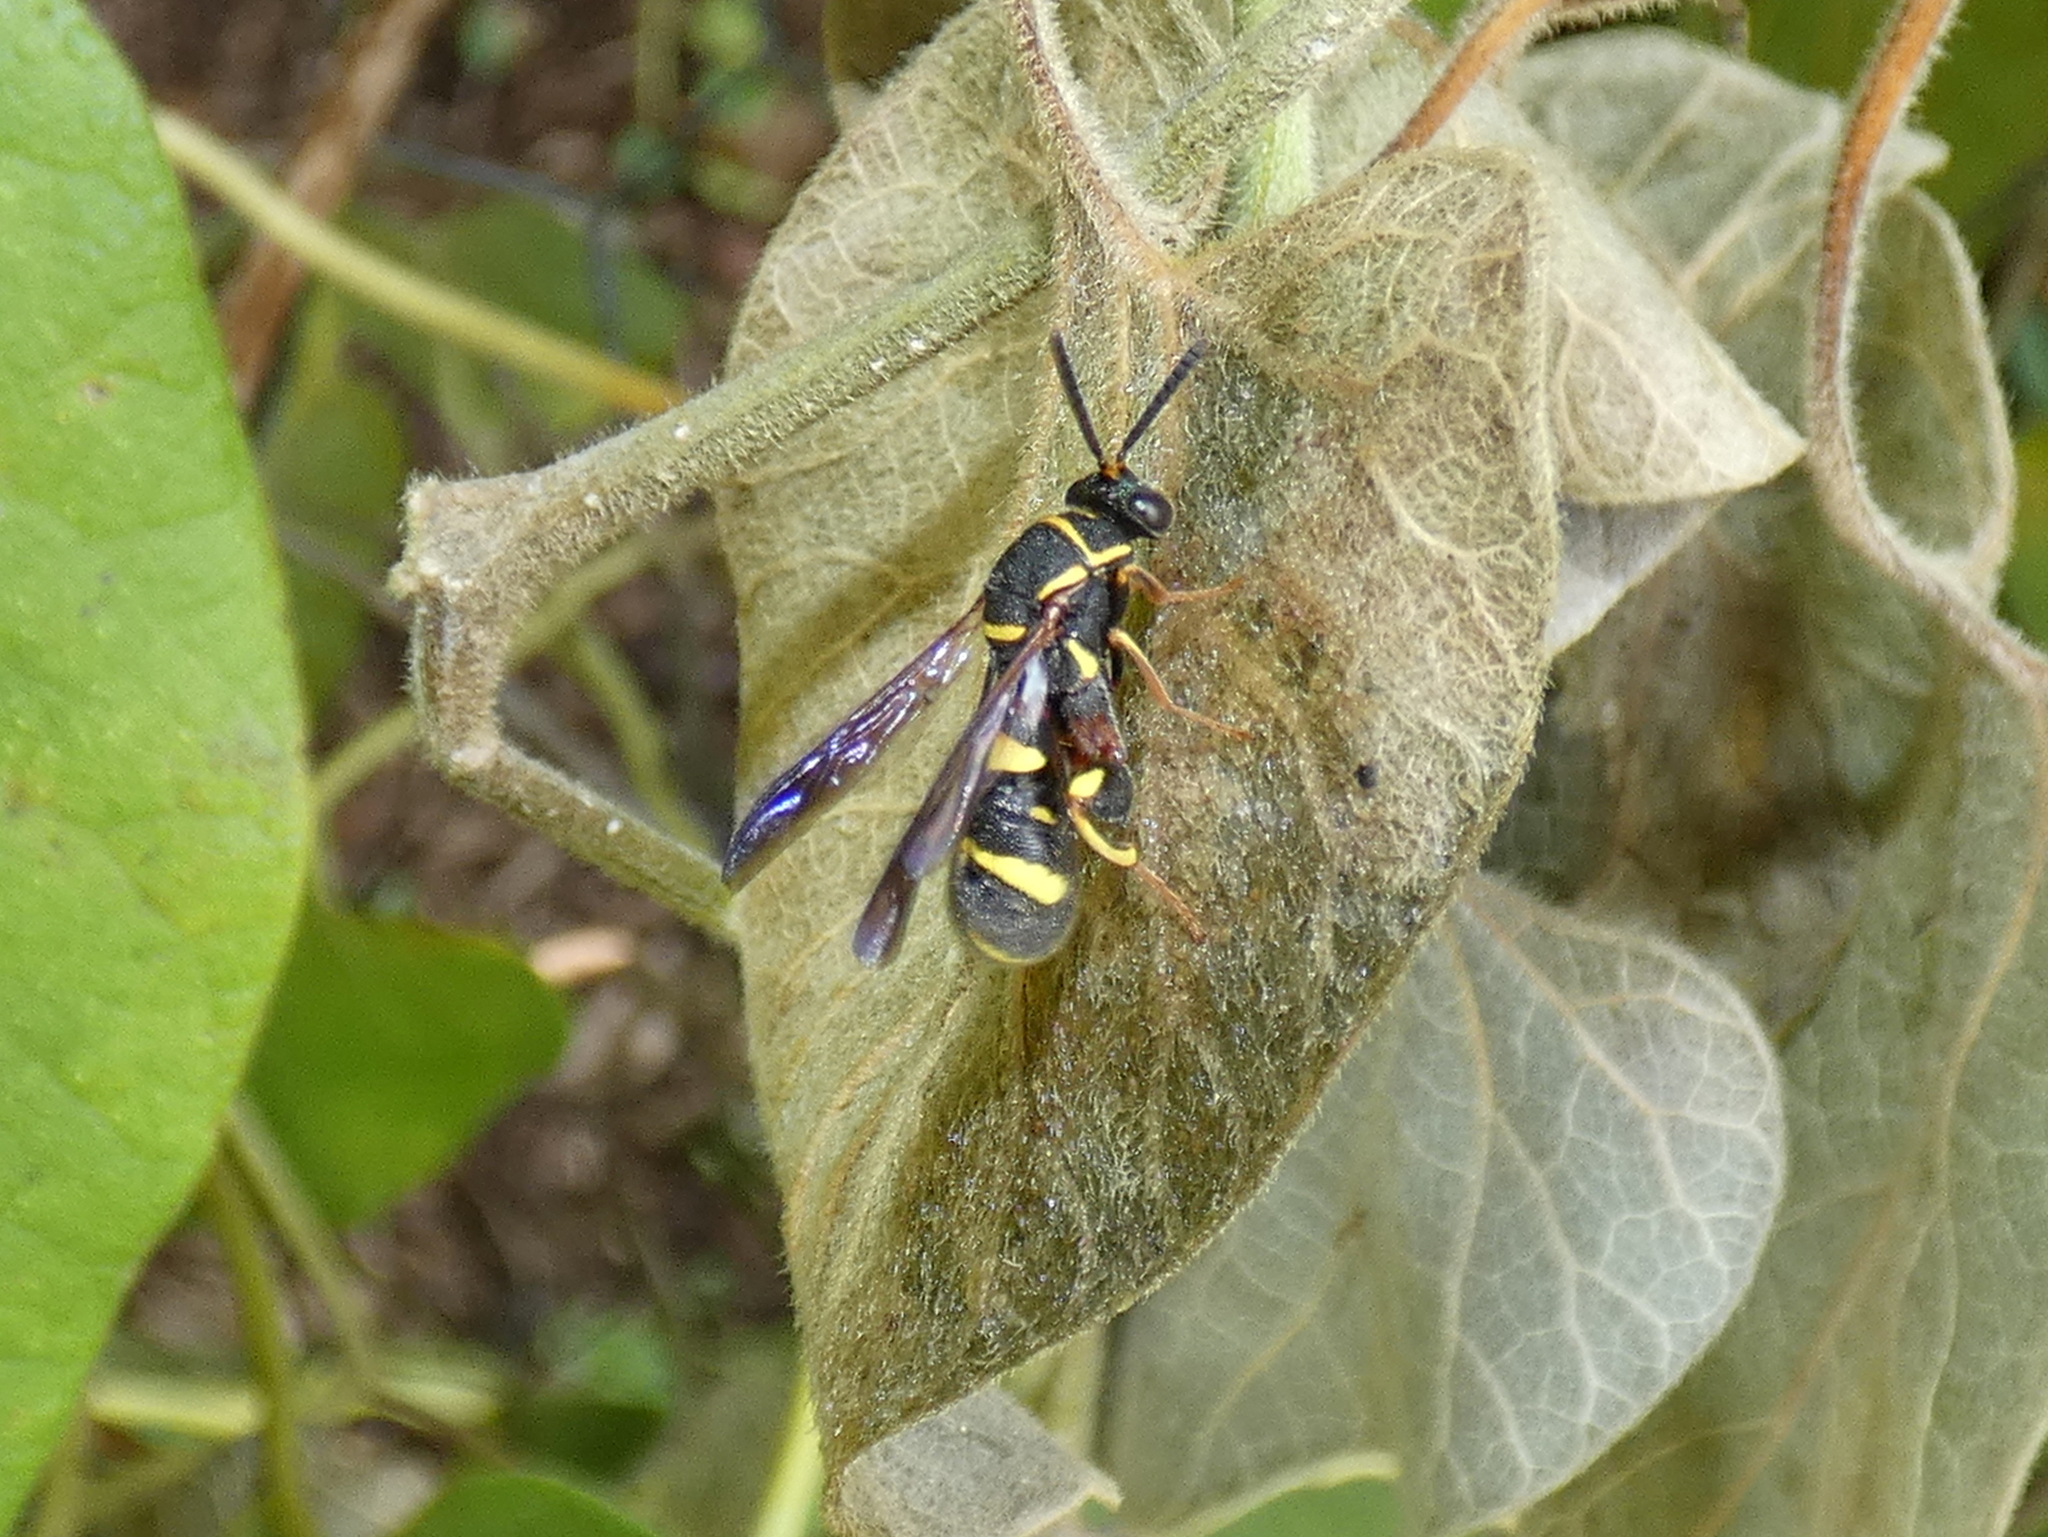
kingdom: Animalia
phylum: Arthropoda
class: Insecta
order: Hymenoptera
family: Leucospidae
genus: Leucospis
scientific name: Leucospis affinis
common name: Wasp
